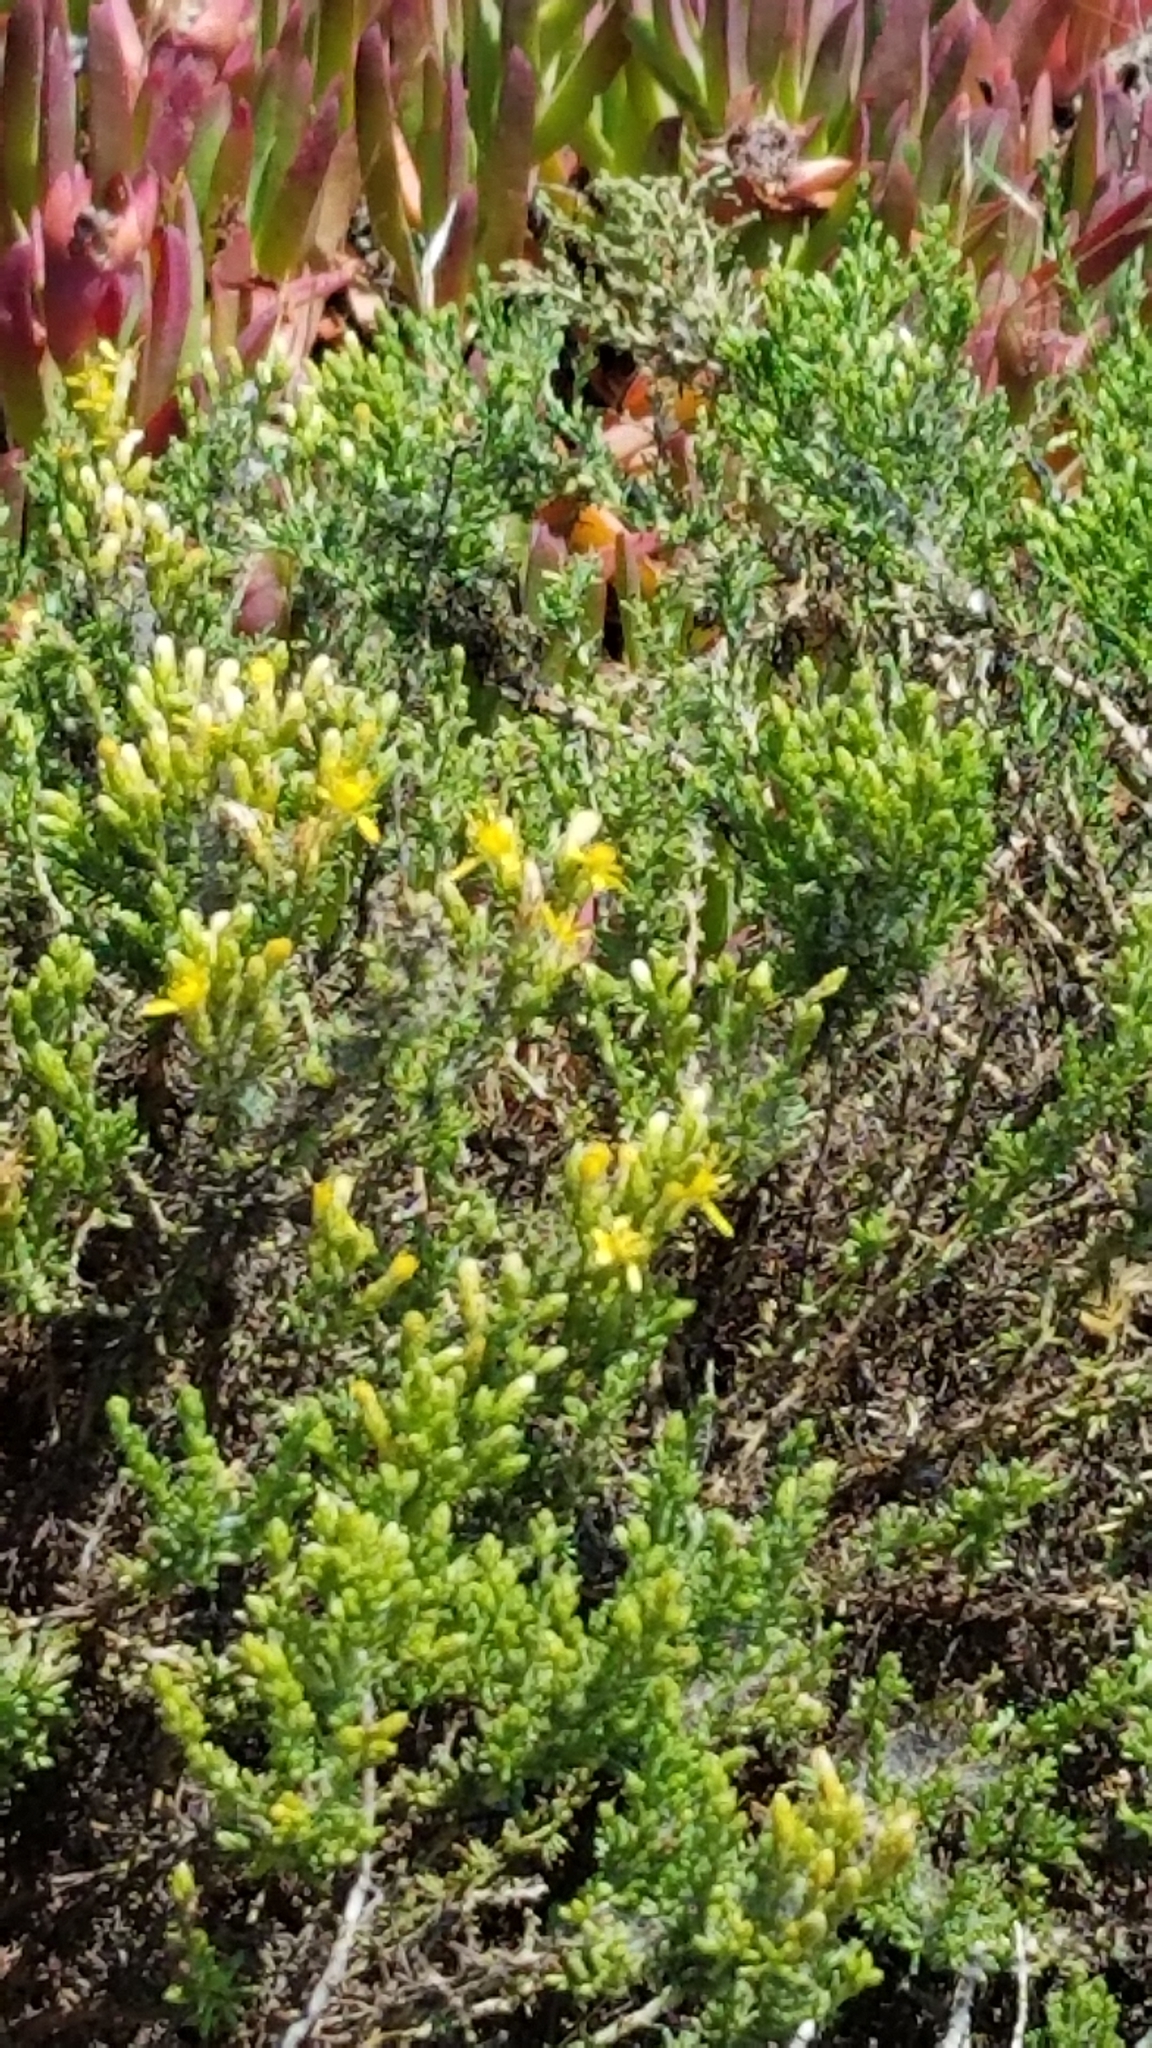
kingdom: Plantae
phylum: Tracheophyta
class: Magnoliopsida
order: Asterales
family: Asteraceae
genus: Ericameria
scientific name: Ericameria ericoides
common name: California goldenbush
